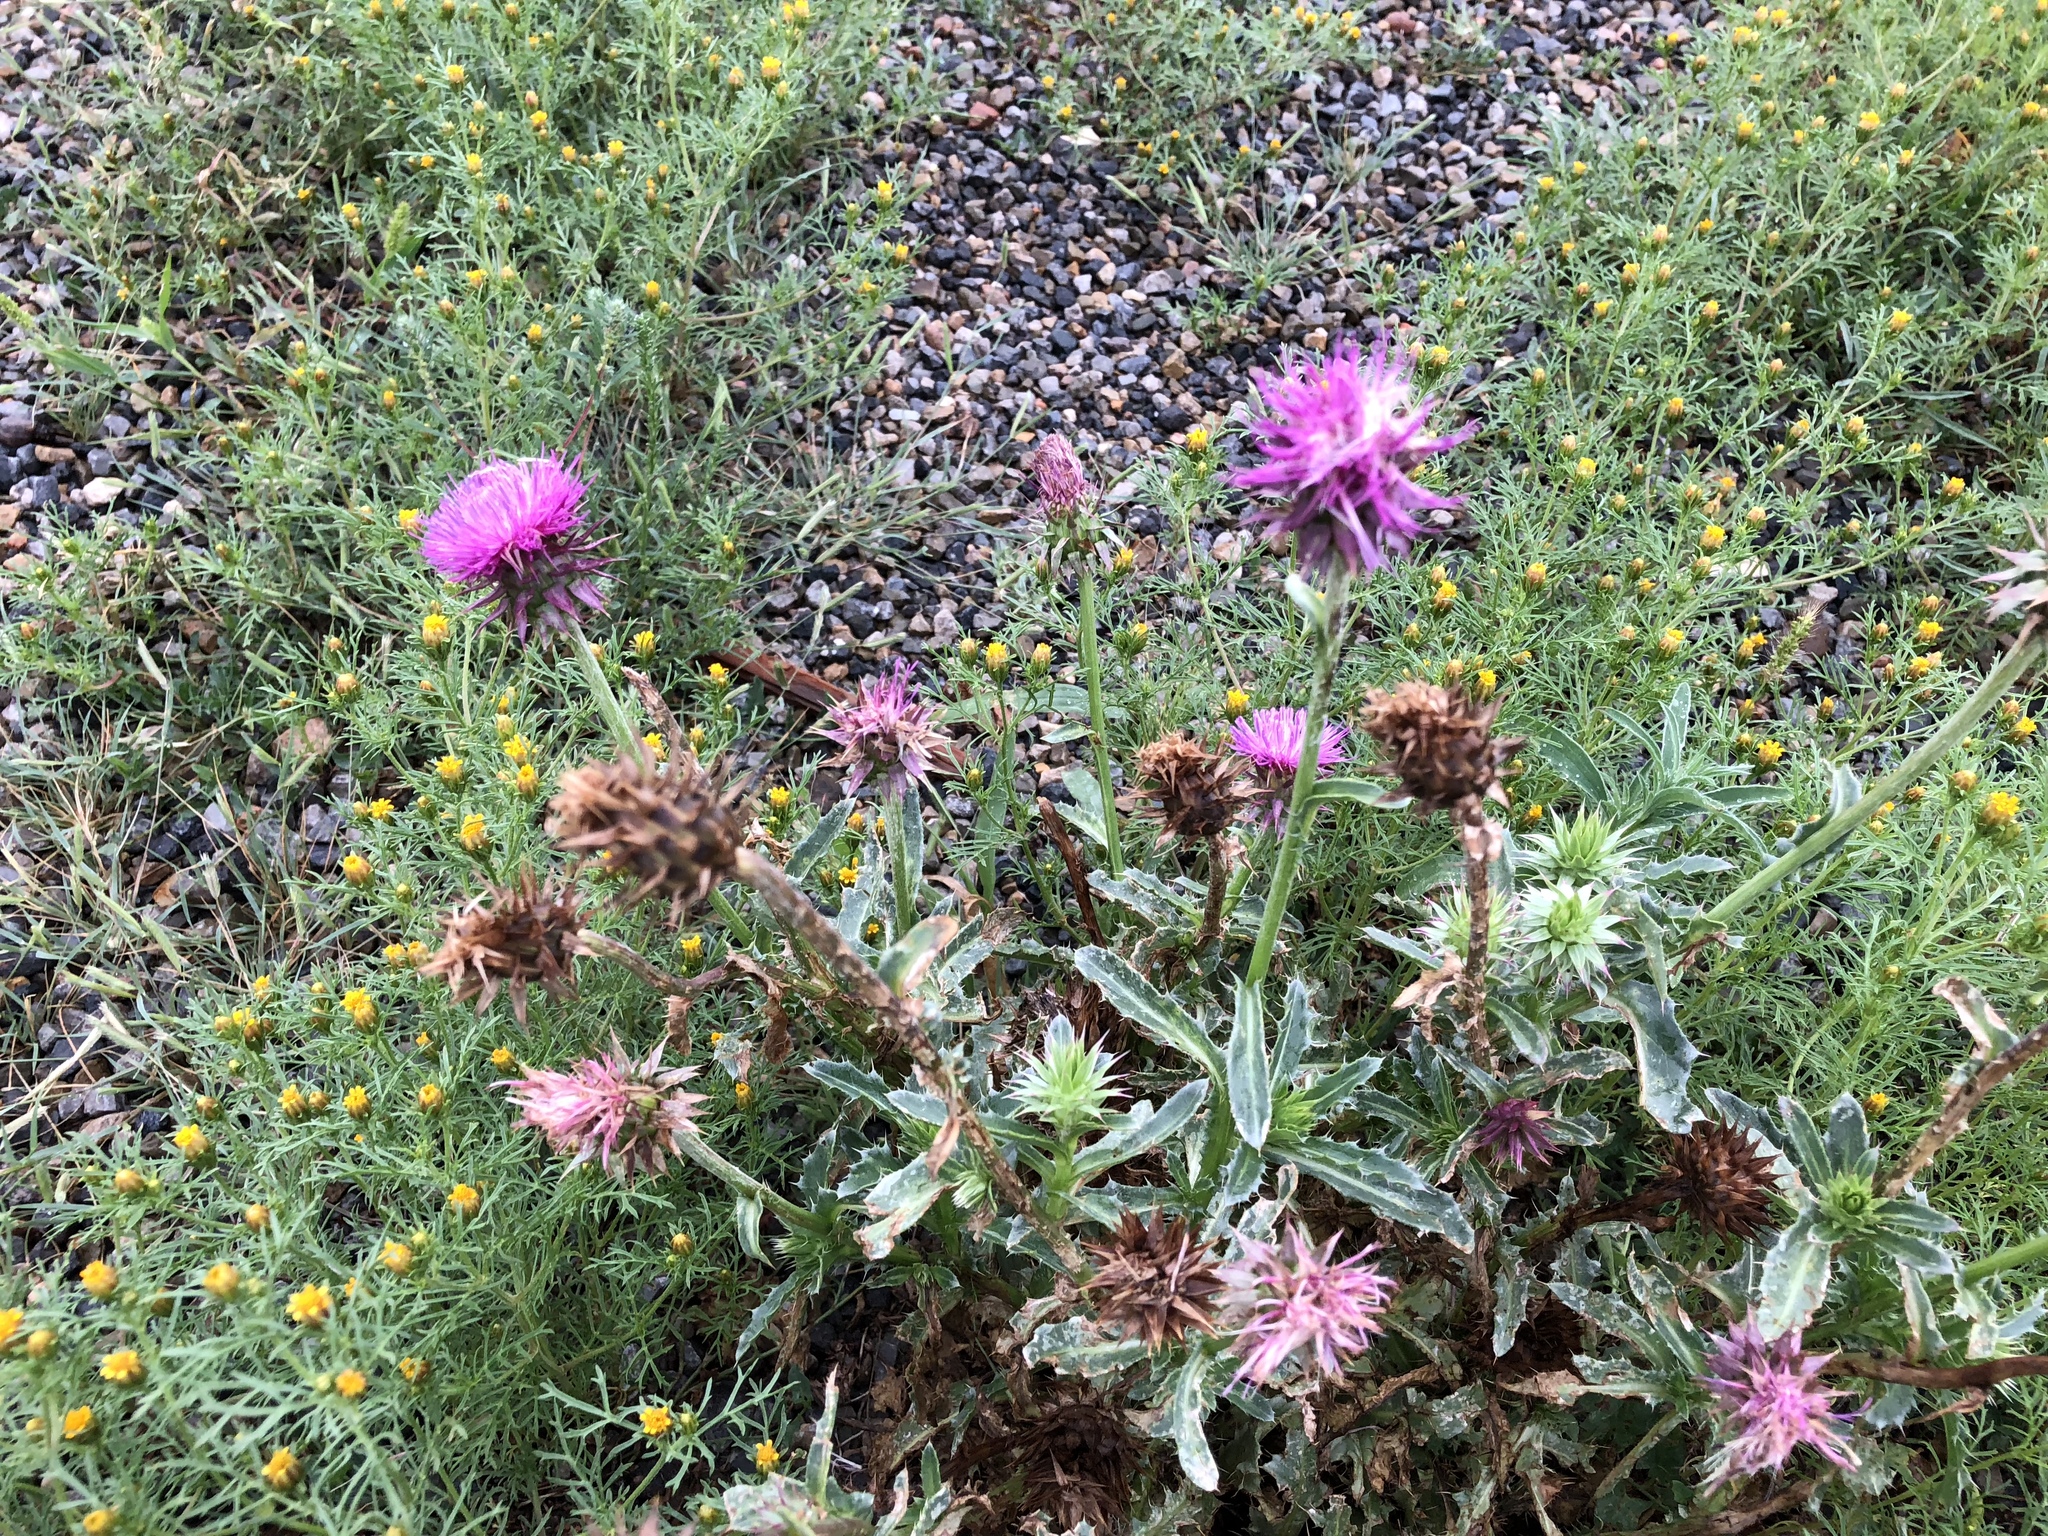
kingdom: Plantae
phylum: Tracheophyta
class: Magnoliopsida
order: Asterales
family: Asteraceae
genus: Carduus
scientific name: Carduus nutans
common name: Musk thistle
